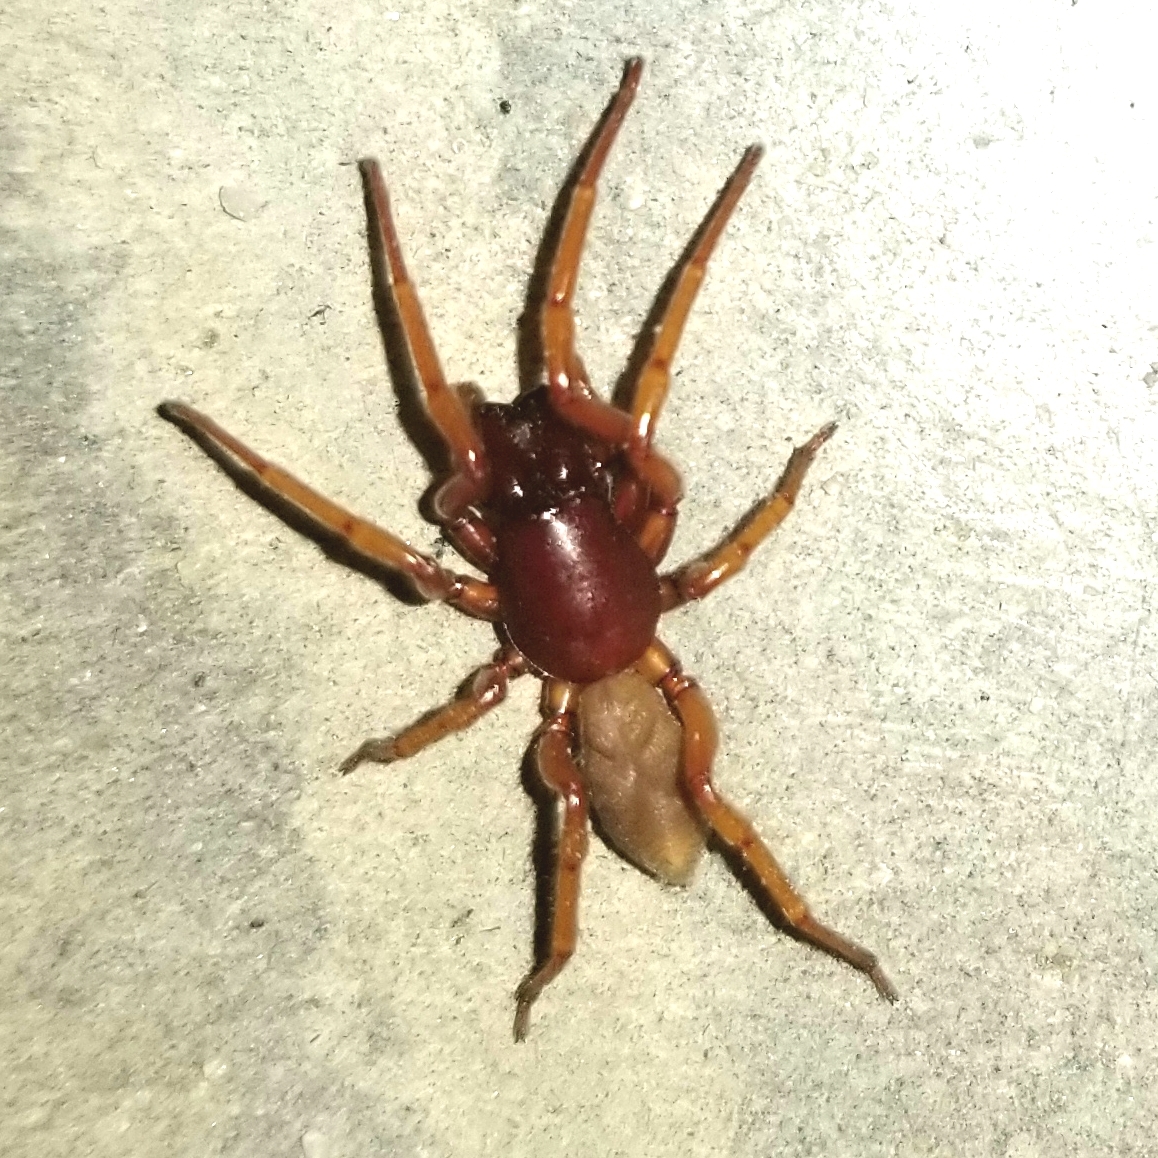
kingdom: Animalia
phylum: Arthropoda
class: Arachnida
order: Araneae
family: Dysderidae
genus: Dysdera
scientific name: Dysdera crocata
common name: Woodlouse spider
